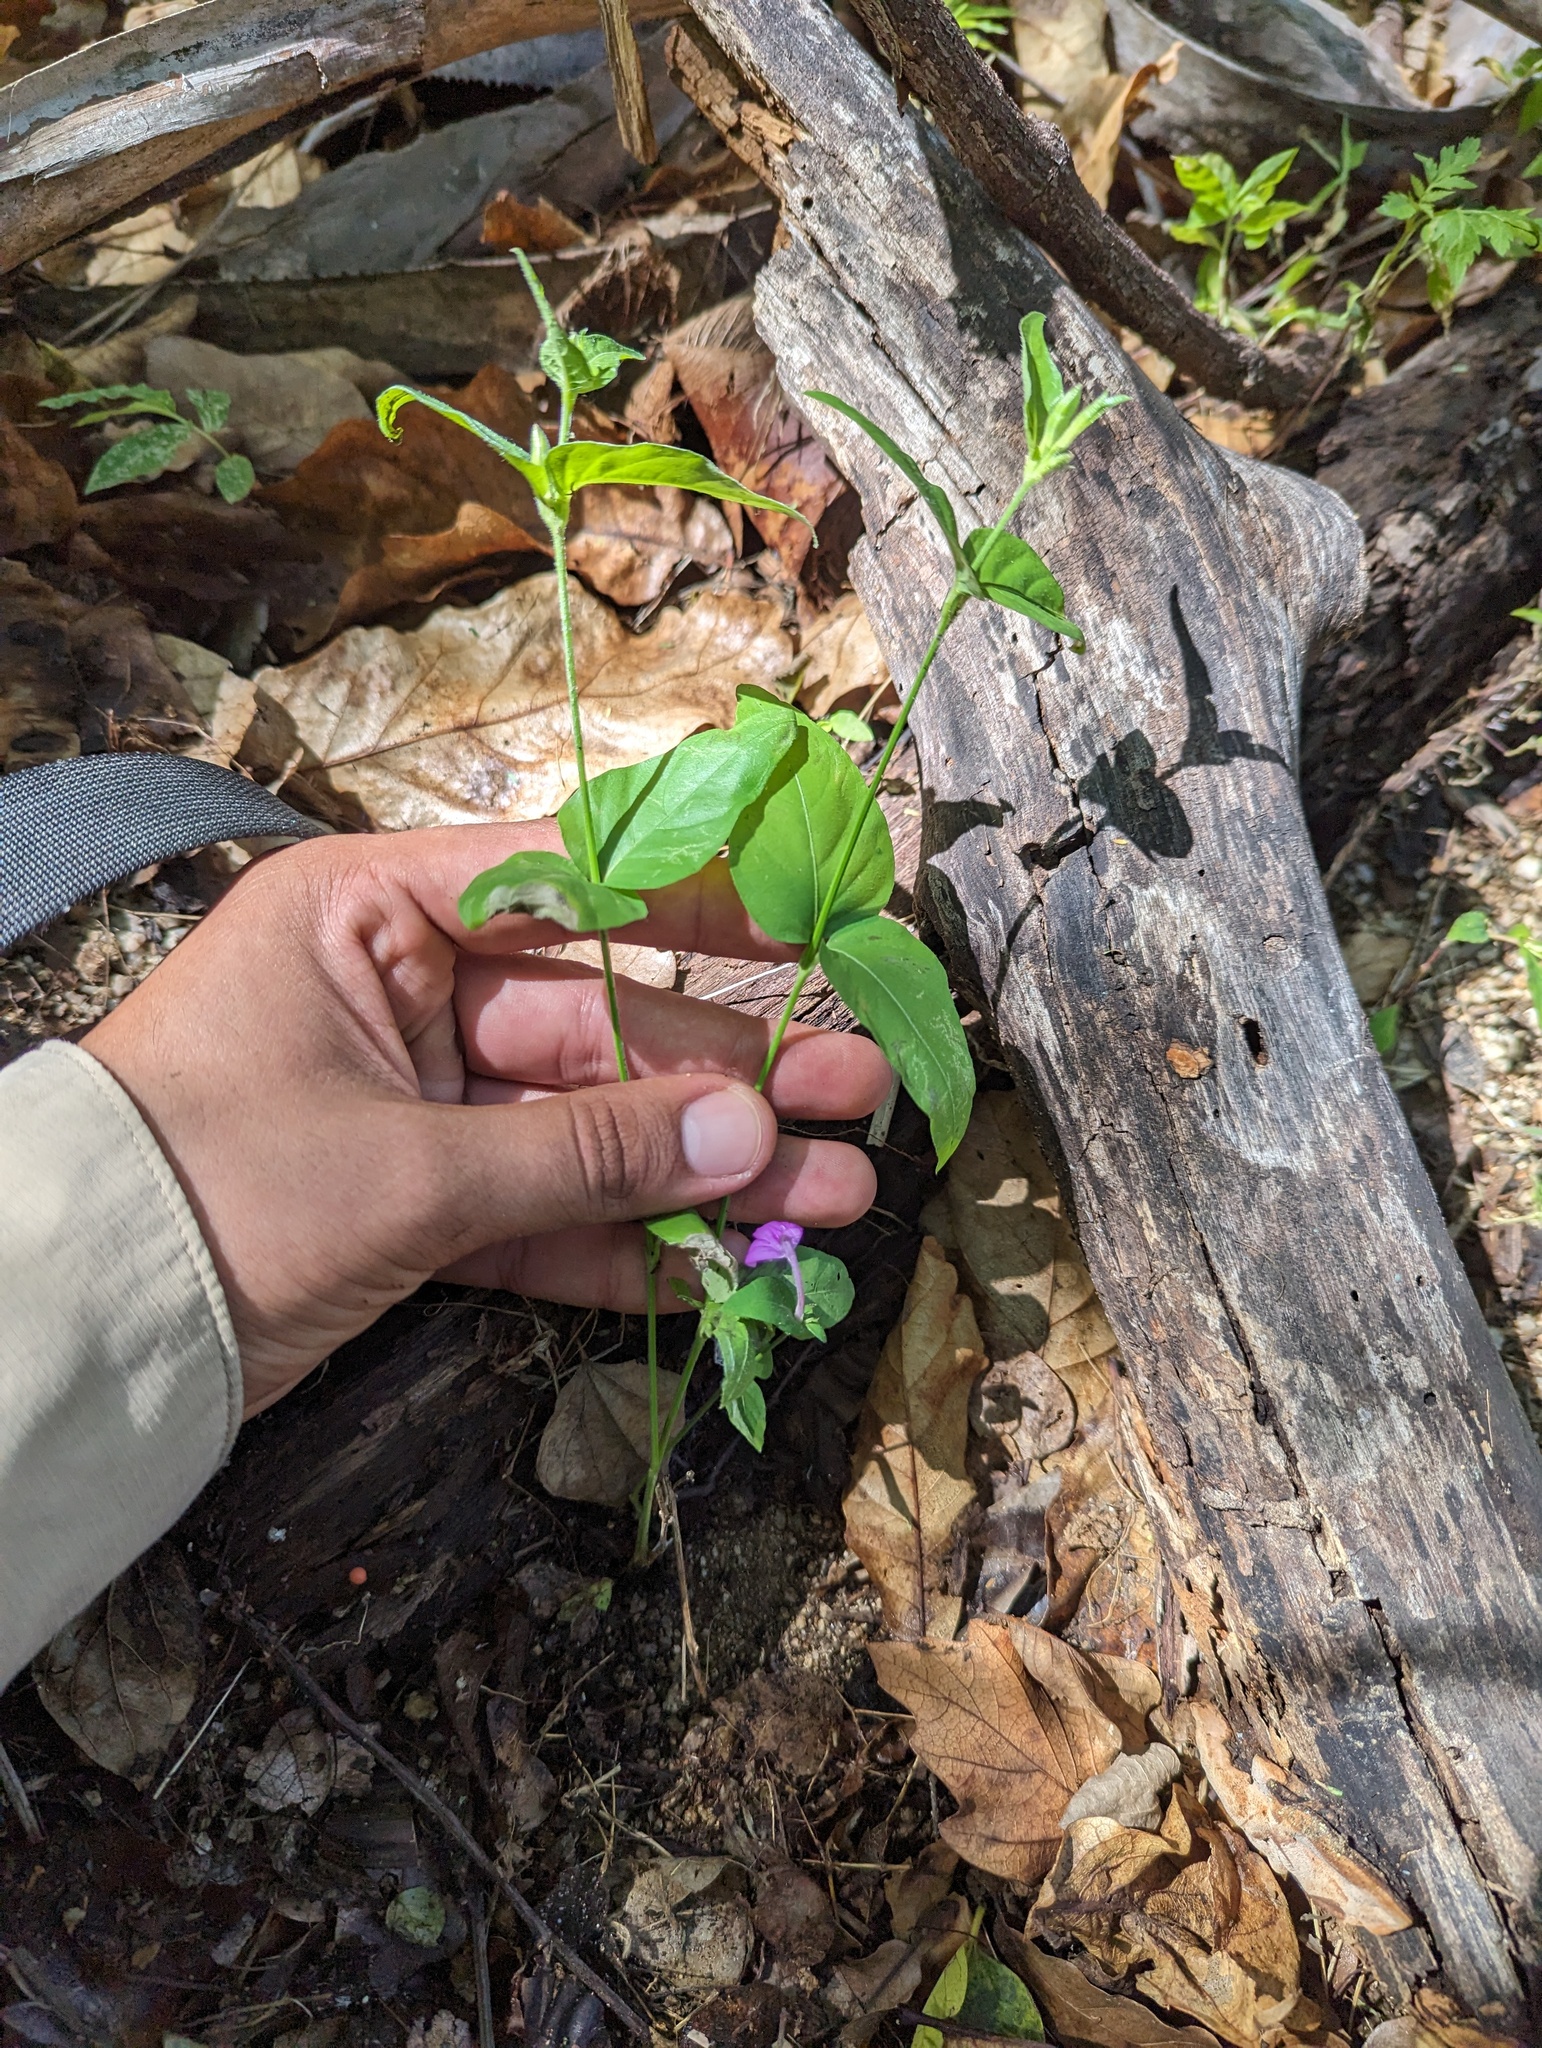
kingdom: Plantae
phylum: Tracheophyta
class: Magnoliopsida
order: Lamiales
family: Acanthaceae
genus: Dianthera
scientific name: Dianthera incerta
